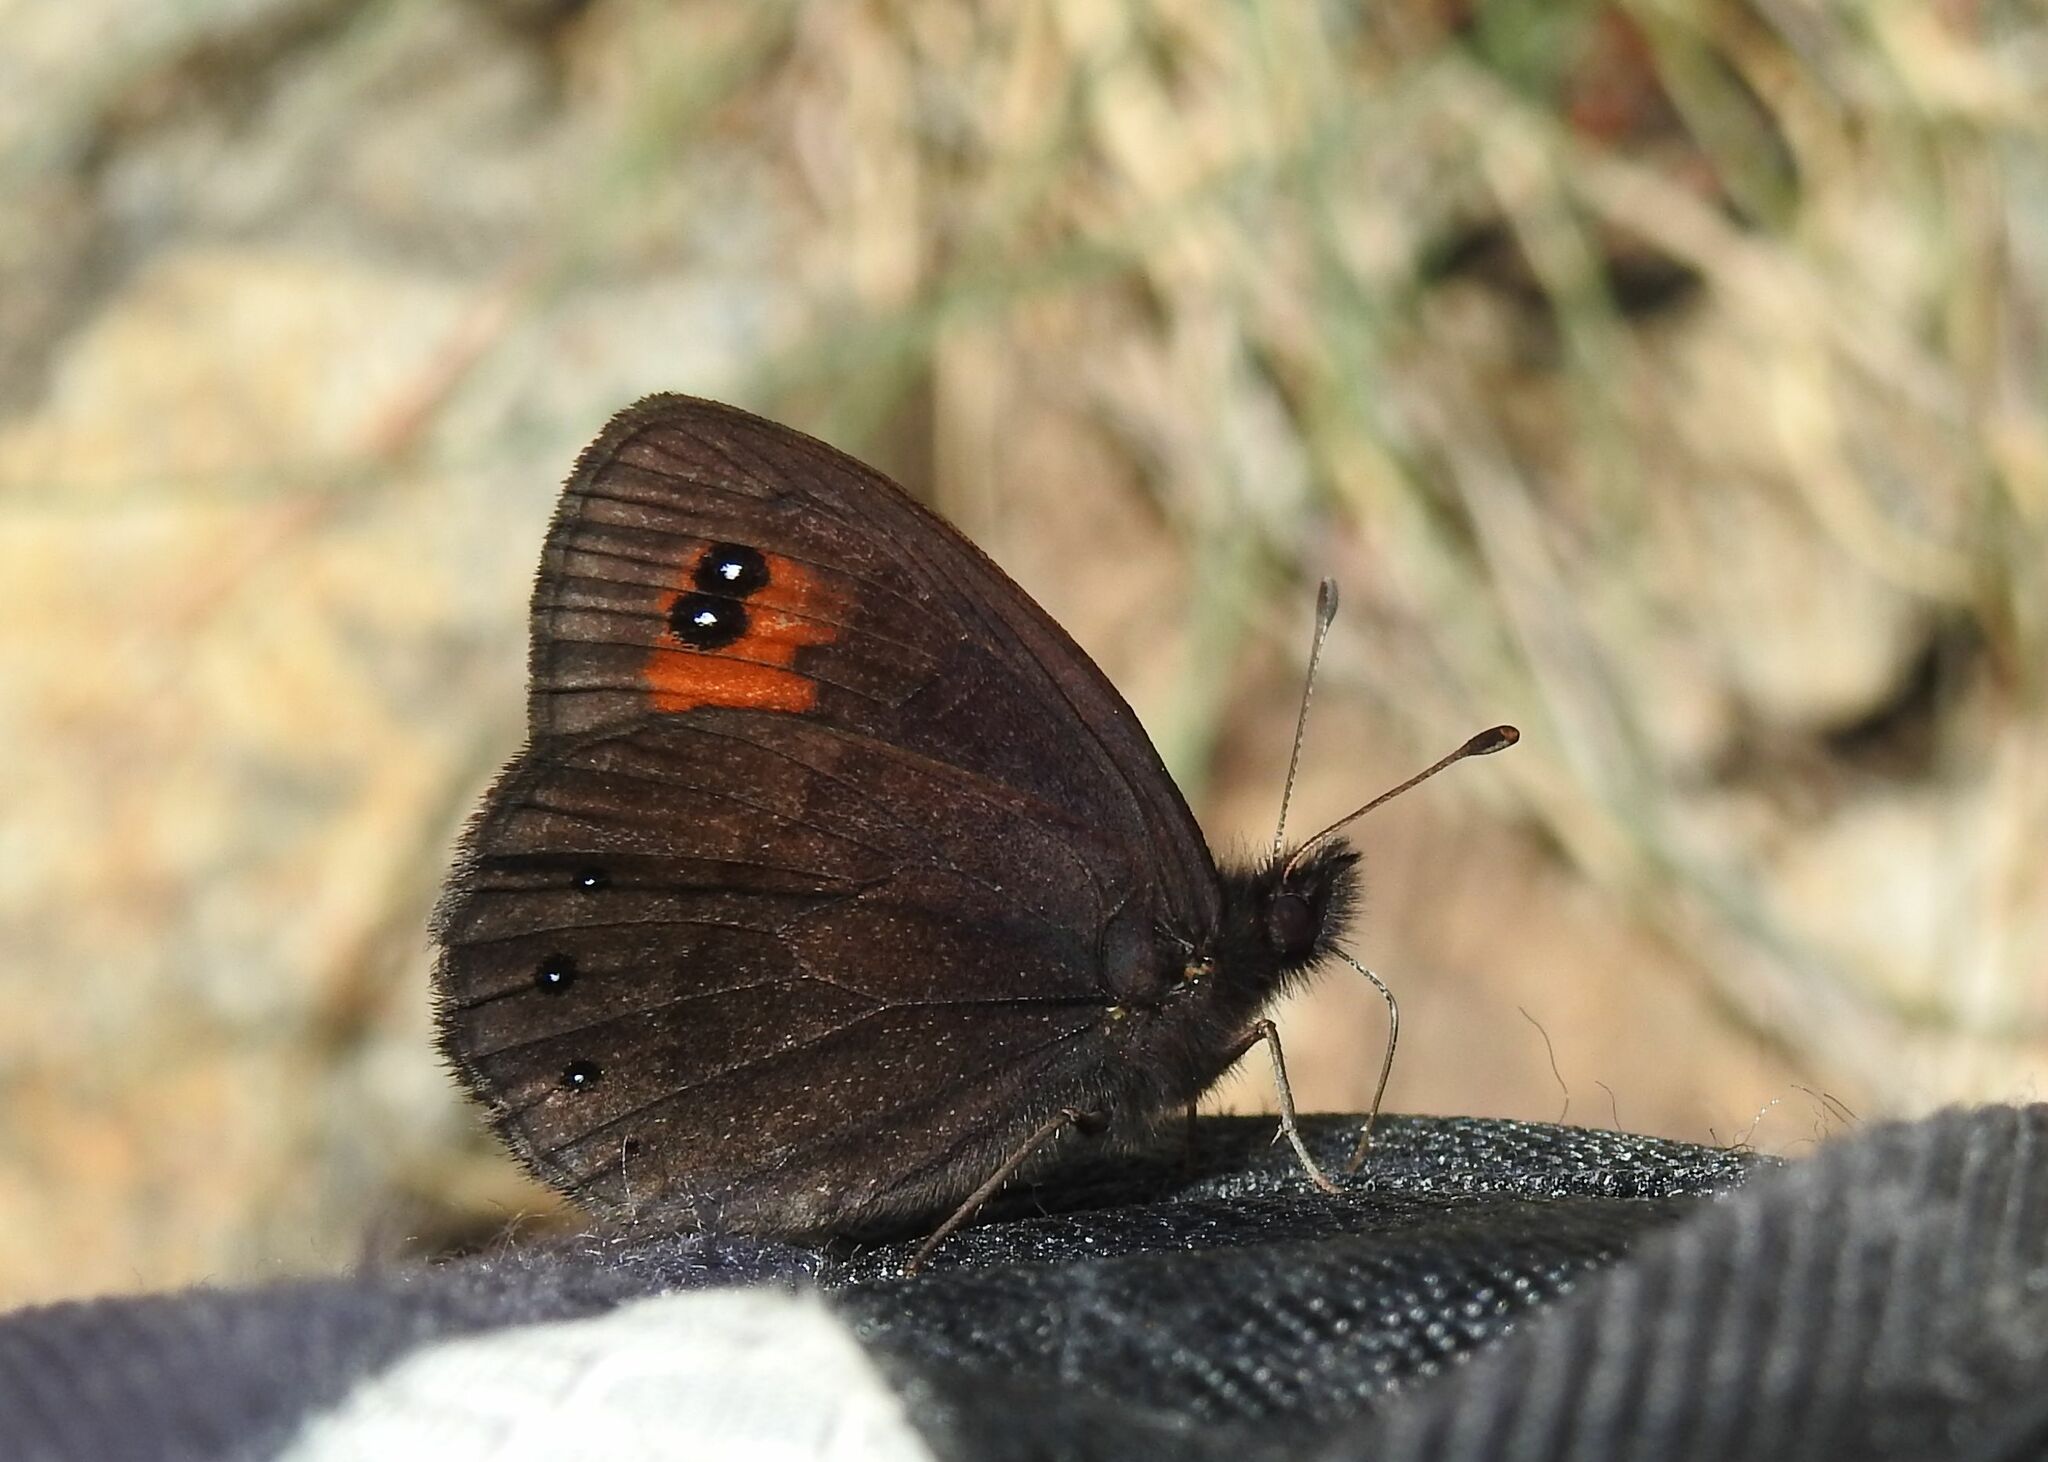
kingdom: Animalia
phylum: Arthropoda
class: Insecta
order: Lepidoptera
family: Nymphalidae
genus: Erebia
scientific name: Erebia meolans
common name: Piedmont ringlet
